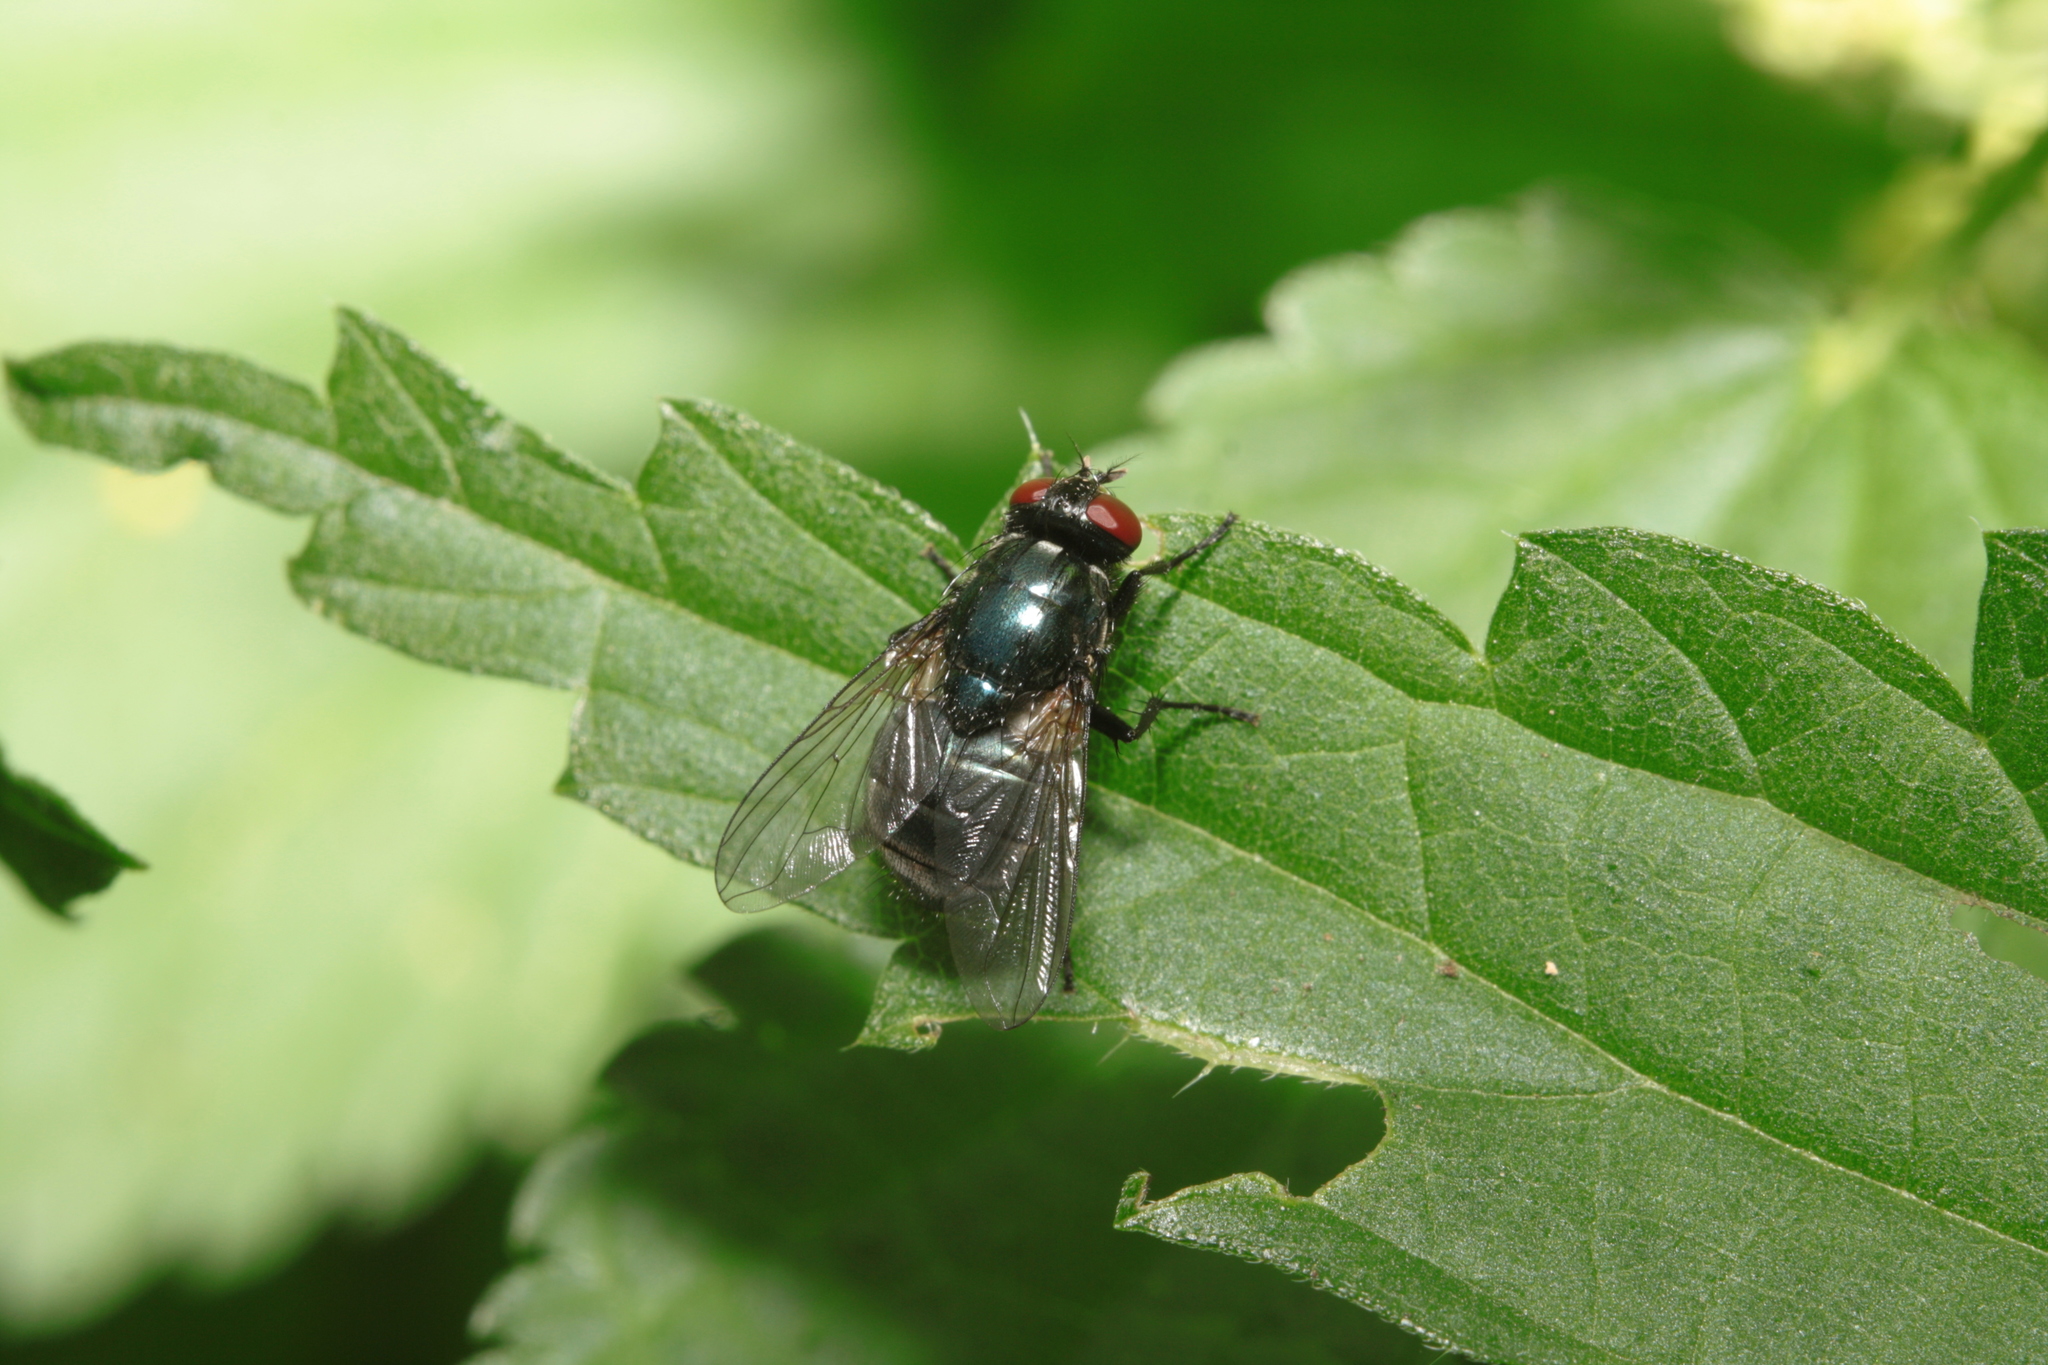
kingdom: Animalia
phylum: Arthropoda
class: Insecta
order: Diptera
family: Muscidae
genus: Eudasyphora
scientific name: Eudasyphora cyanicolor
